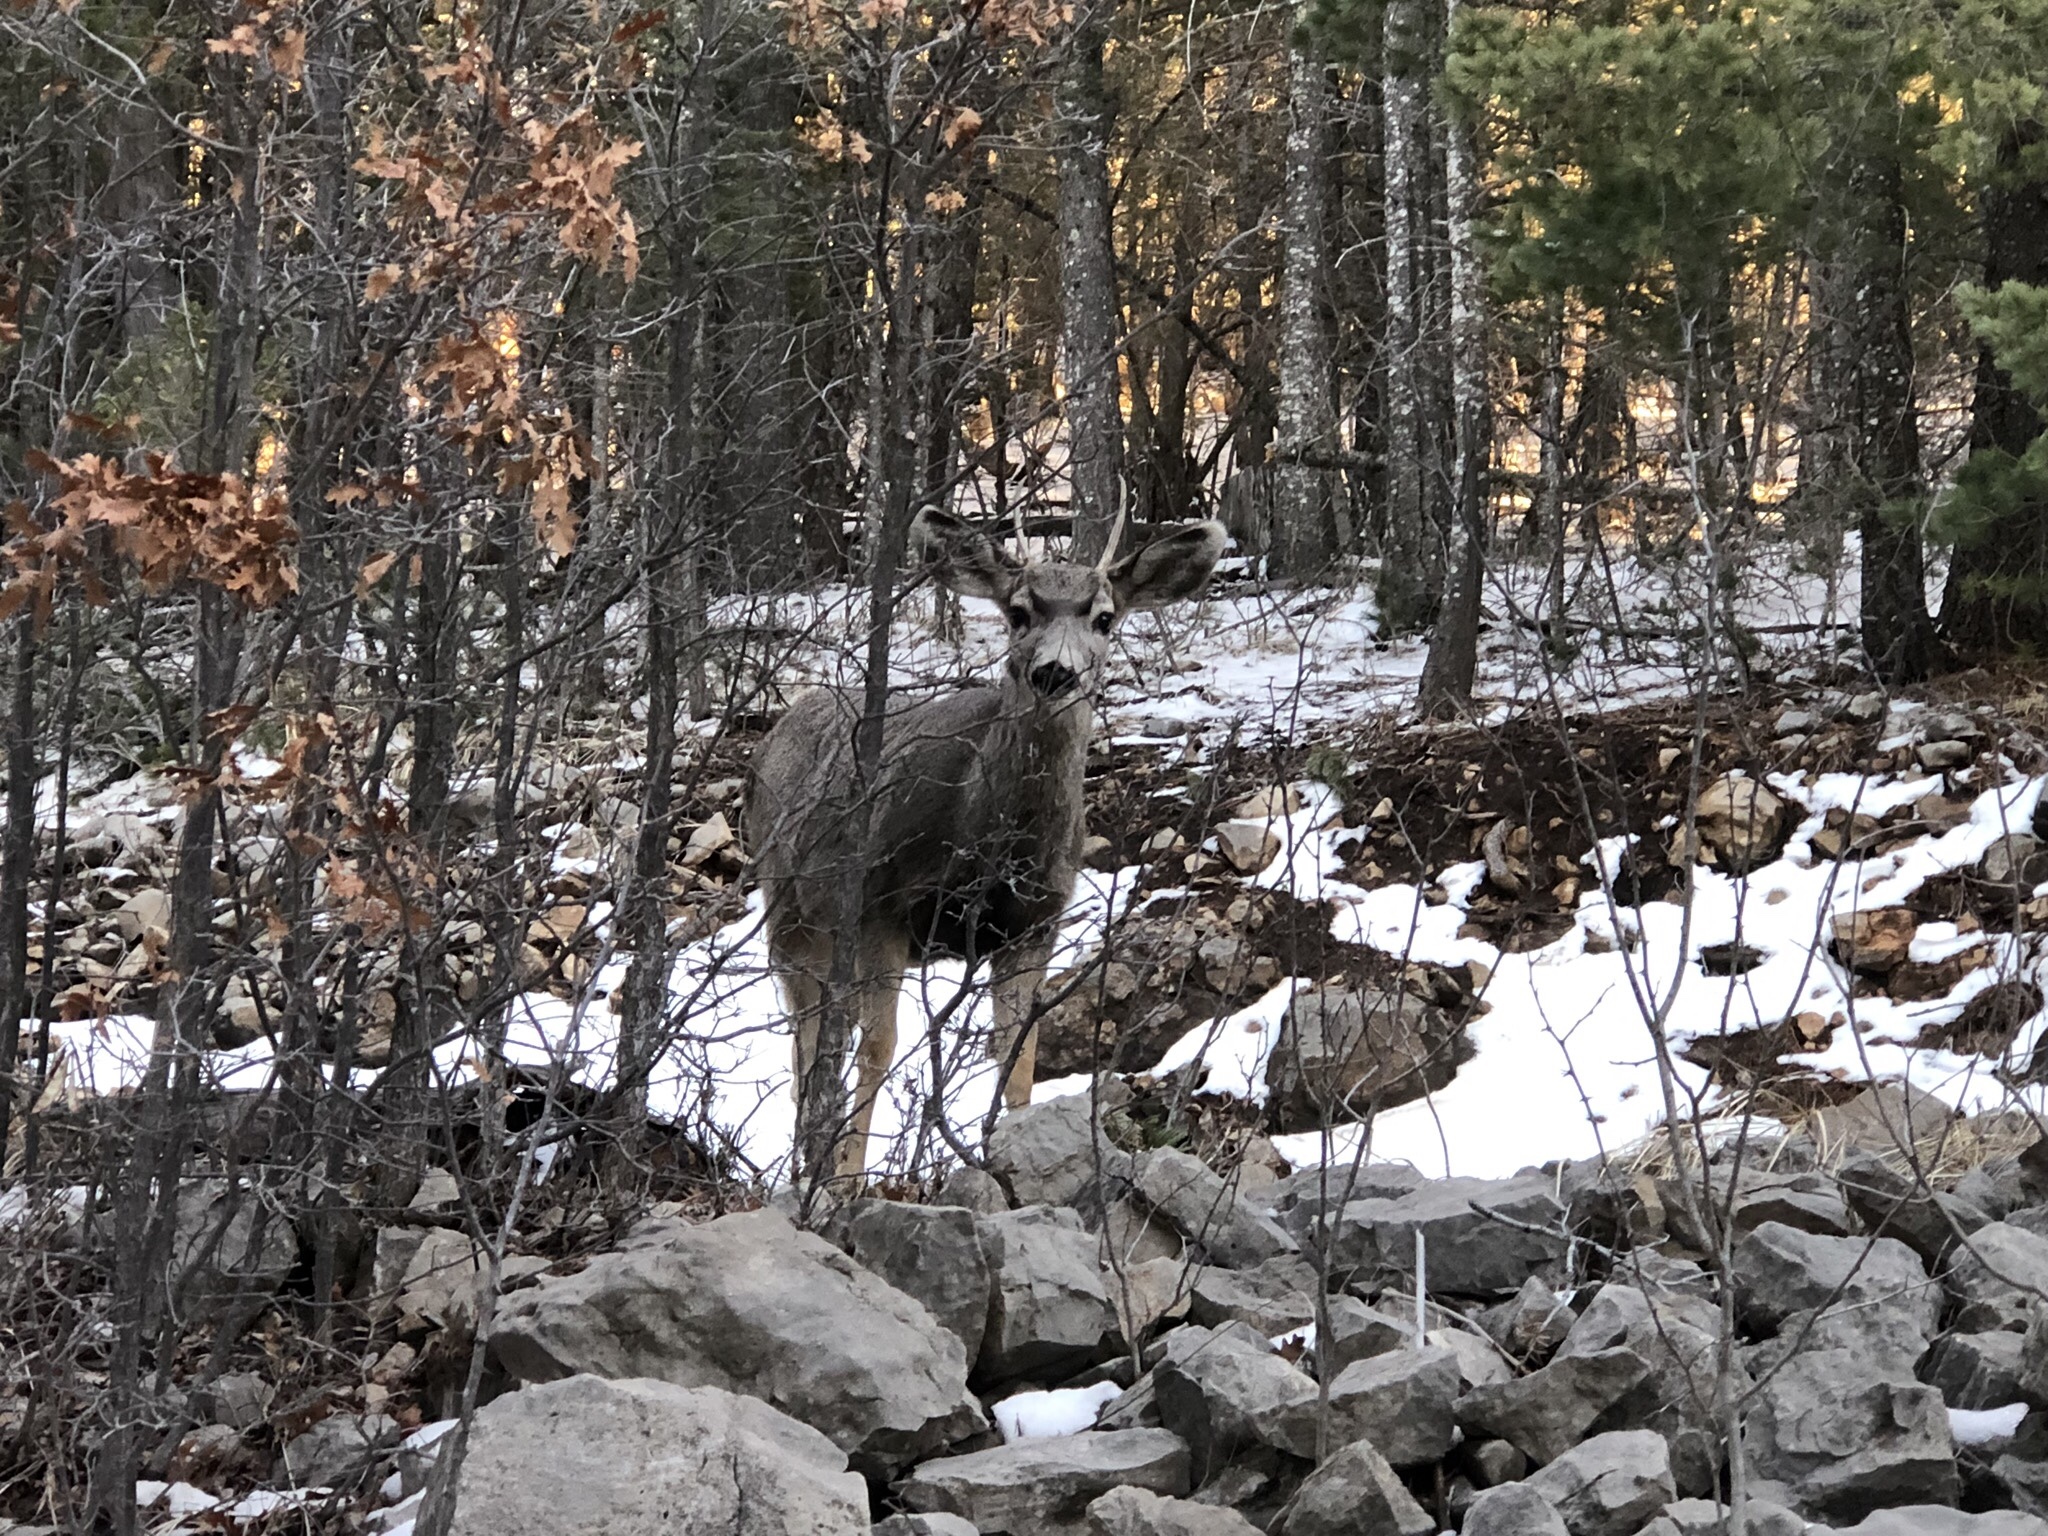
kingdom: Animalia
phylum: Chordata
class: Mammalia
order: Artiodactyla
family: Cervidae
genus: Odocoileus
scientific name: Odocoileus hemionus
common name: Mule deer
